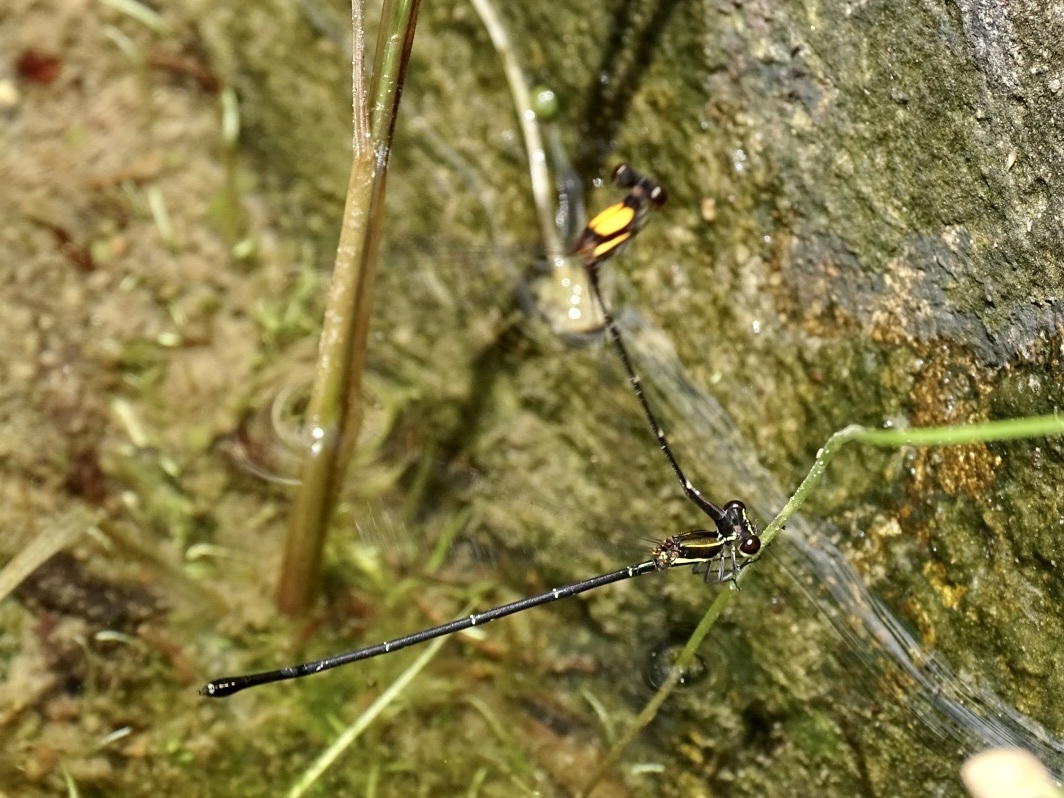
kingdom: Animalia
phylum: Arthropoda
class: Insecta
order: Odonata
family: Platycnemididae
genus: Prodasineura
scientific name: Prodasineura croconota
